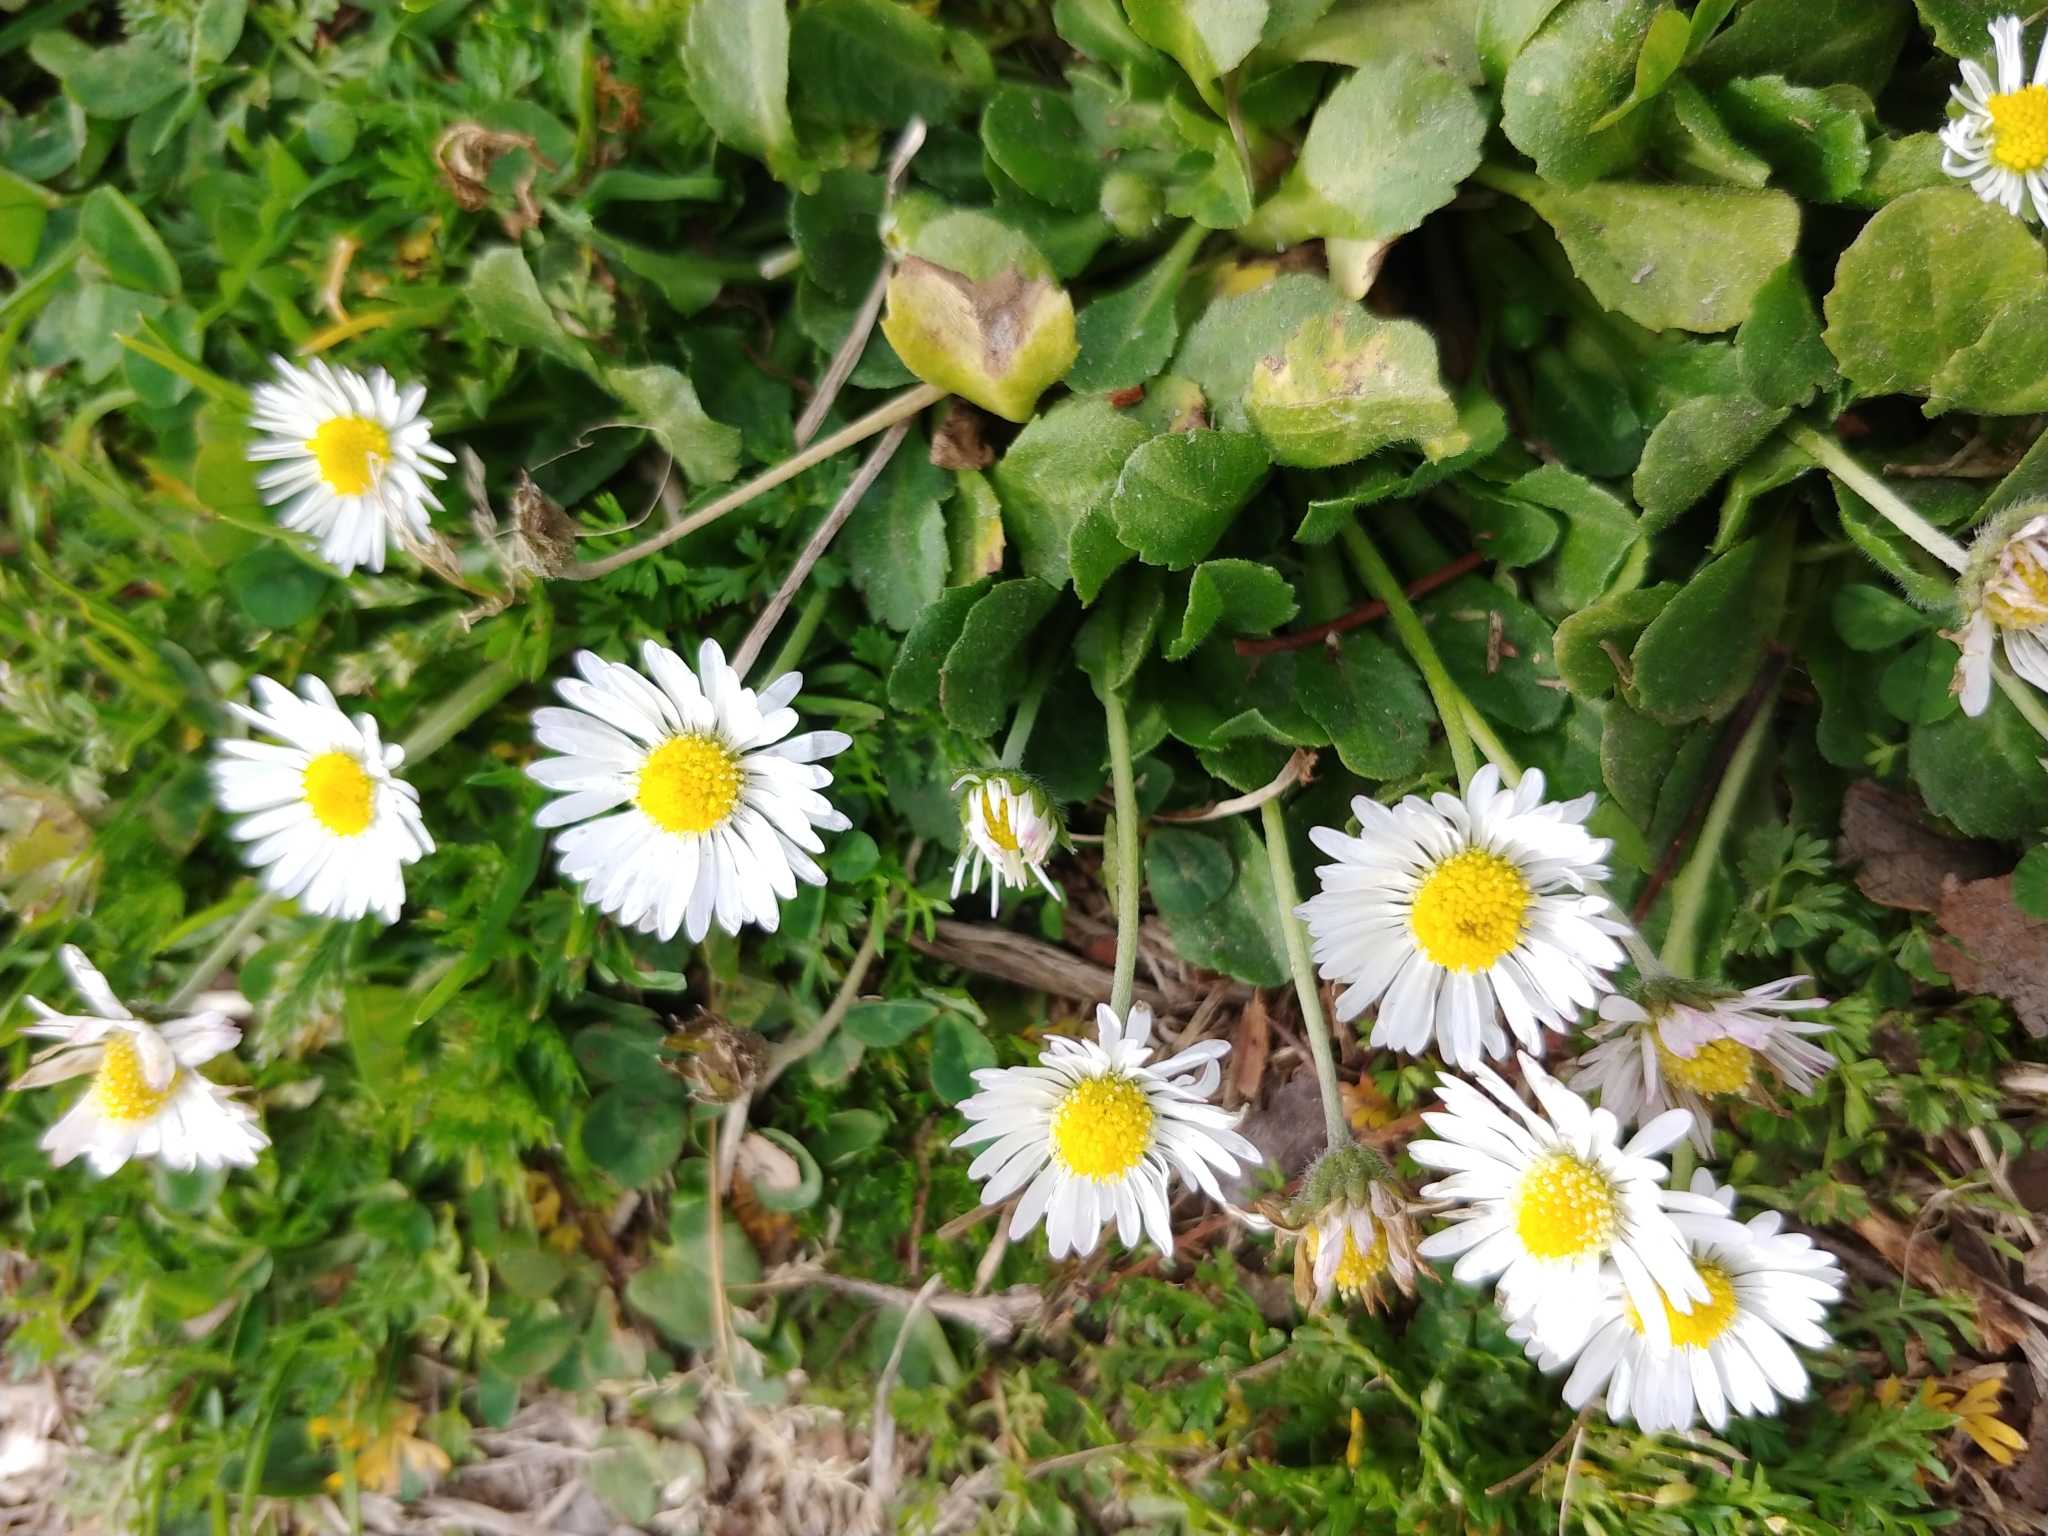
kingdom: Plantae
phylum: Tracheophyta
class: Magnoliopsida
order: Asterales
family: Asteraceae
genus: Bellis
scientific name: Bellis perennis
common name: Lawndaisy
